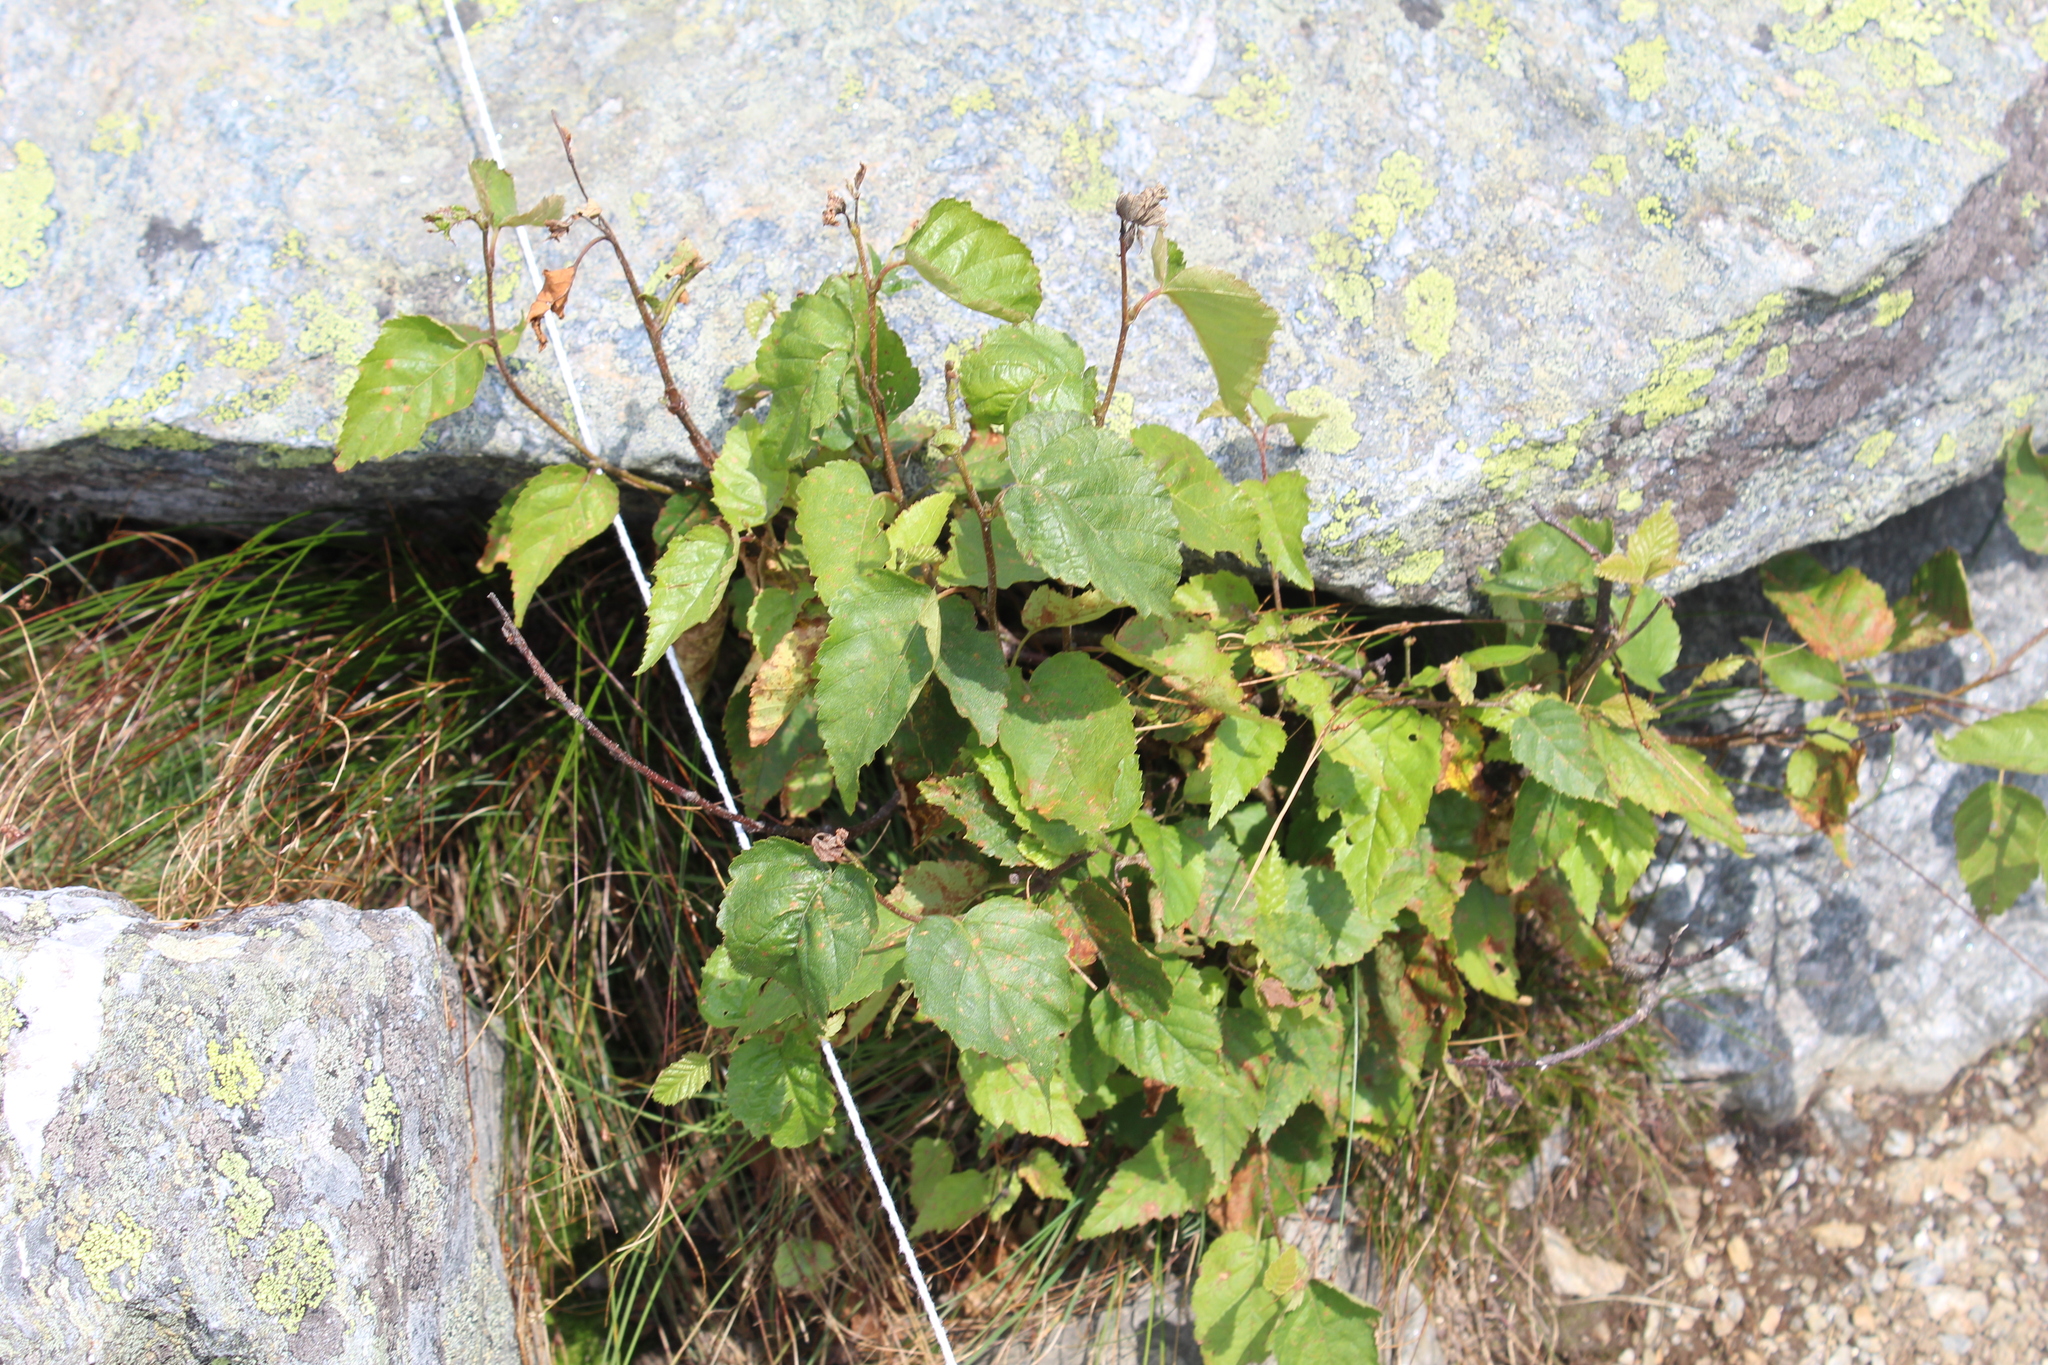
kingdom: Plantae
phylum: Tracheophyta
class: Magnoliopsida
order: Fagales
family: Betulaceae
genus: Betula
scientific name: Betula cordifolia
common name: Mountain white birch
